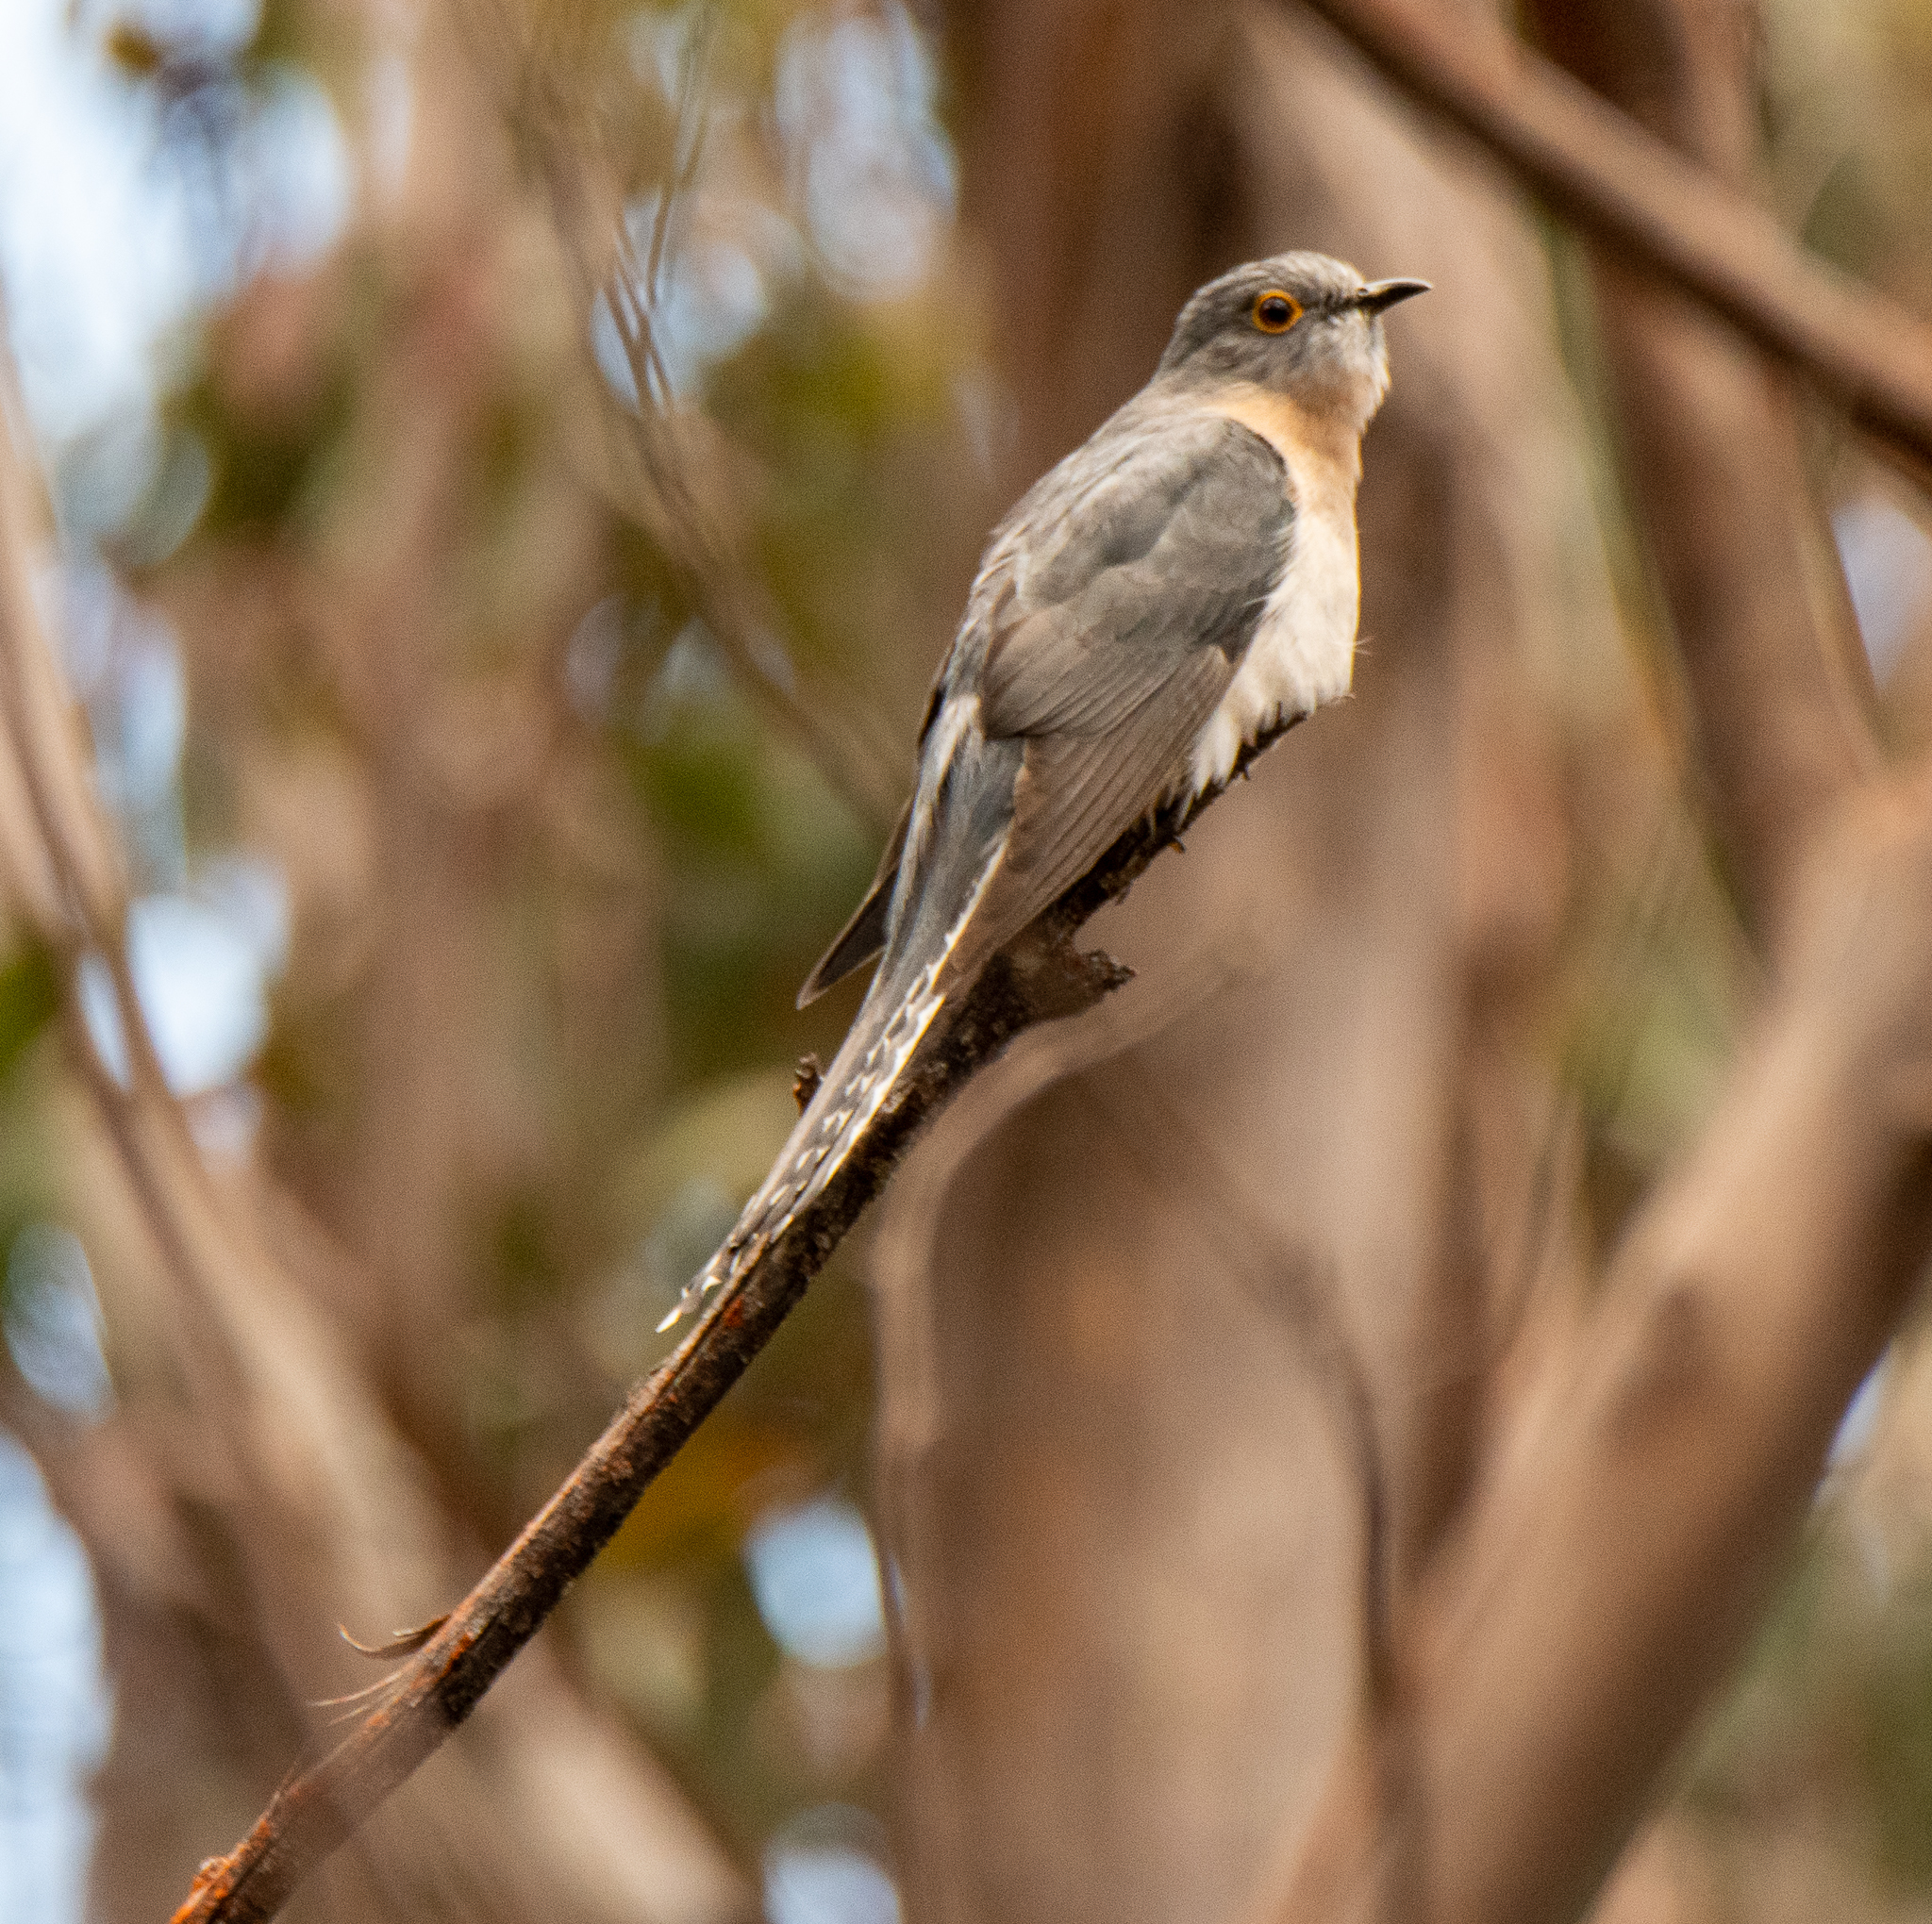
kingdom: Animalia
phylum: Chordata
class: Aves
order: Cuculiformes
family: Cuculidae
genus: Cacomantis
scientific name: Cacomantis flabelliformis
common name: Fan-tailed cuckoo
